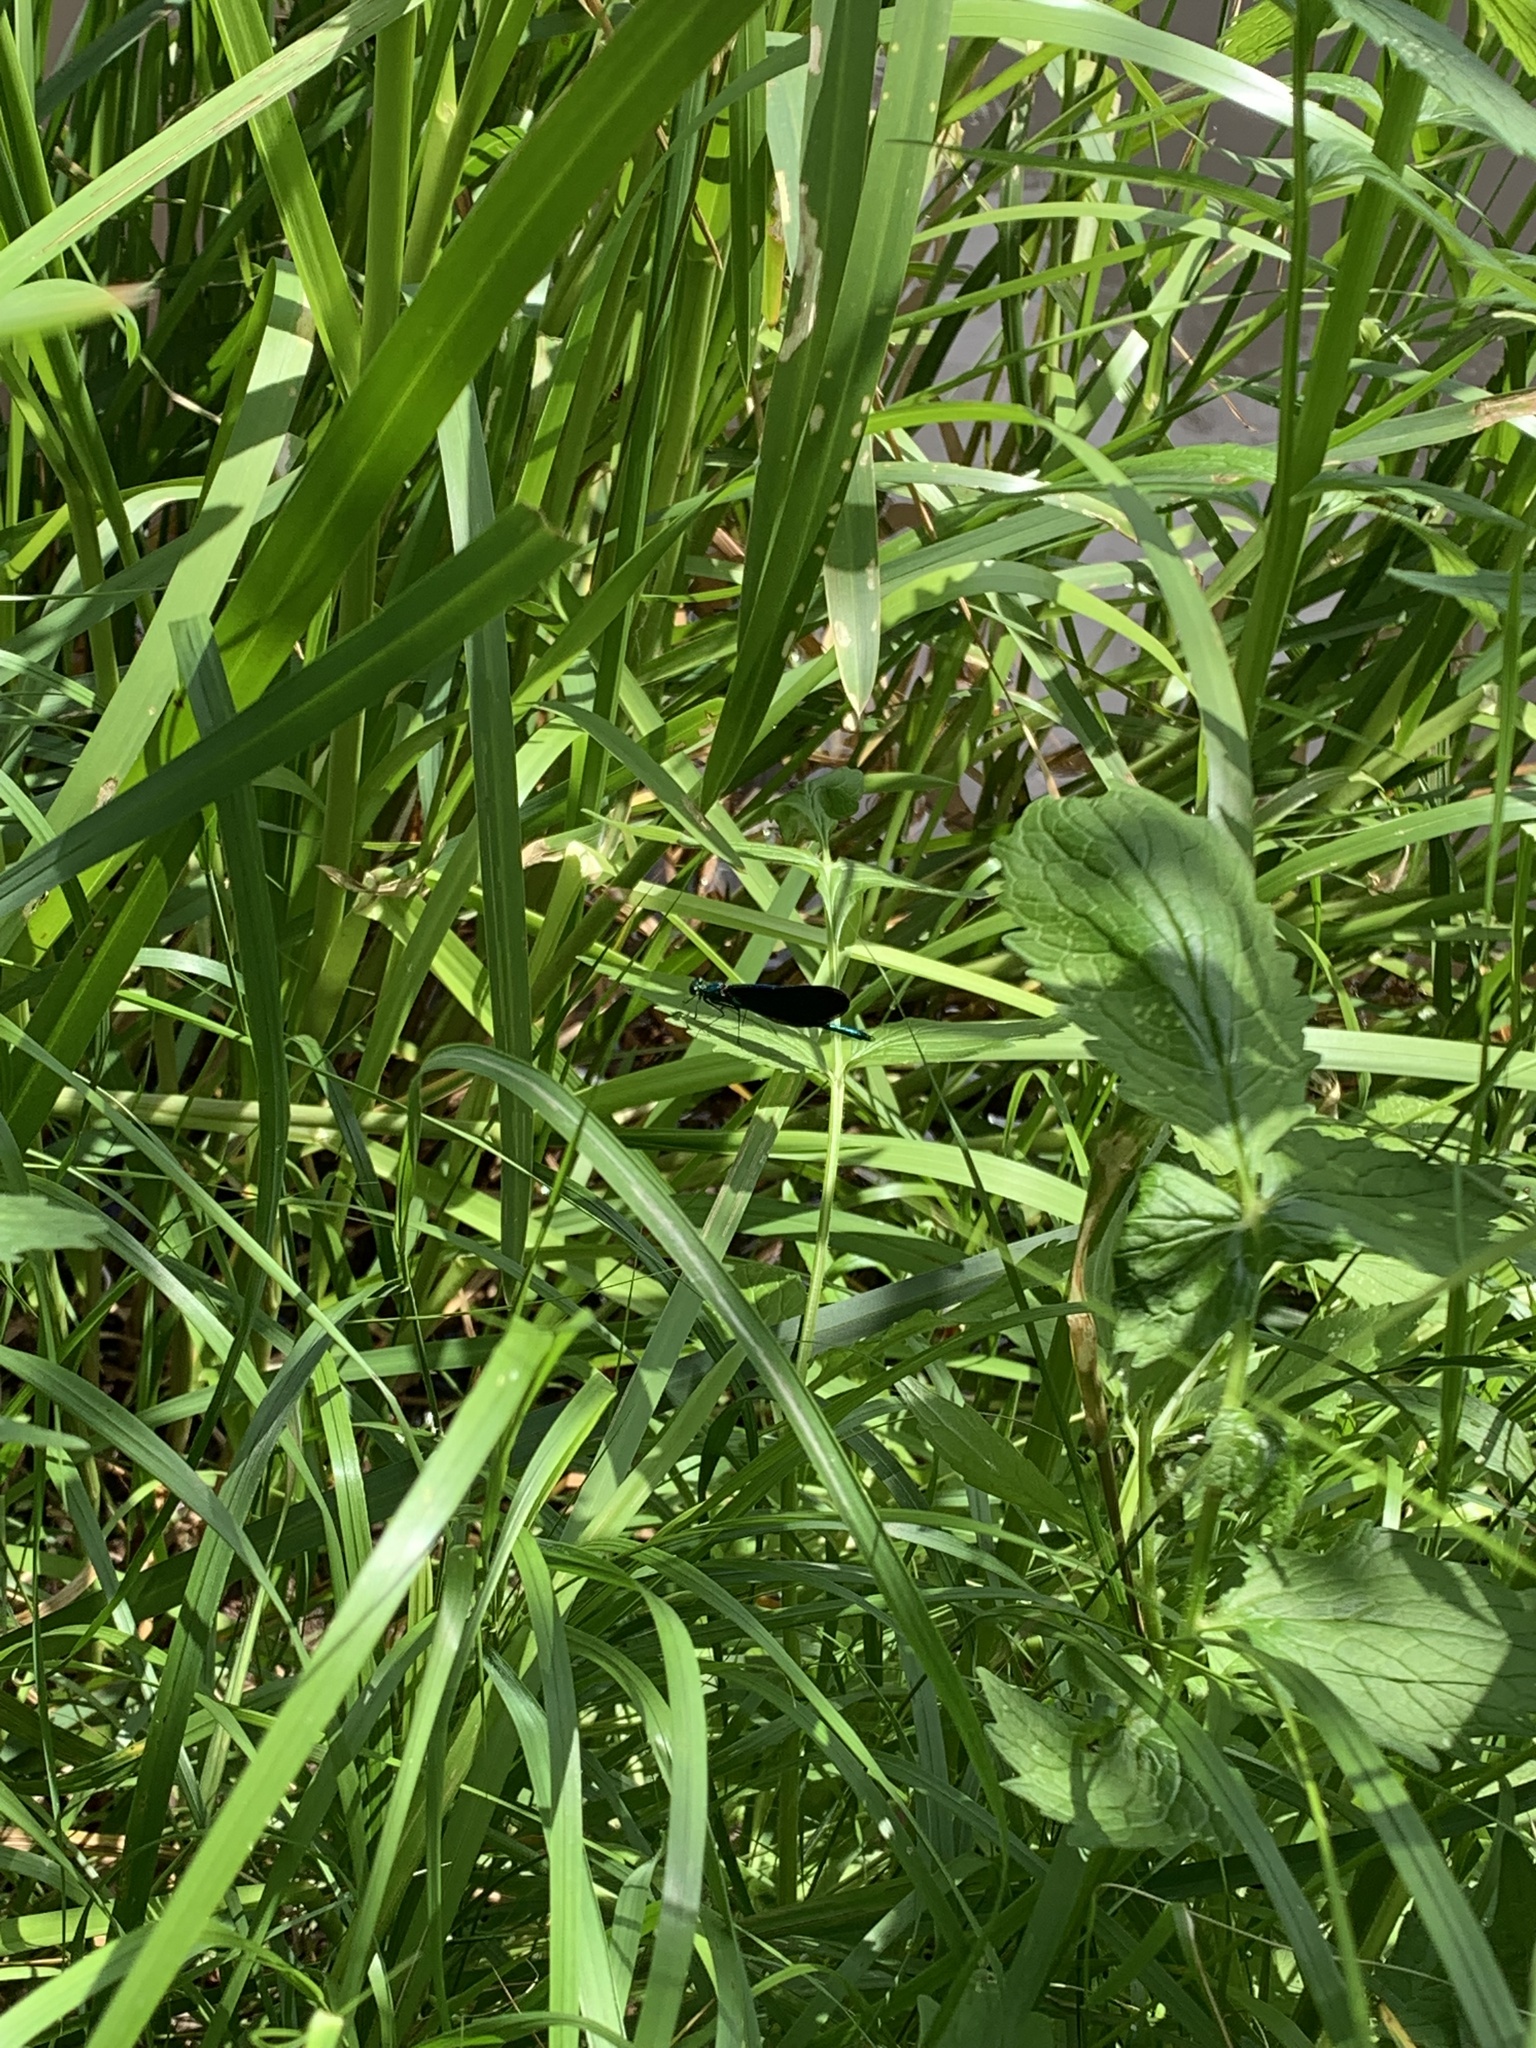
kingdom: Animalia
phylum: Arthropoda
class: Insecta
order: Odonata
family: Calopterygidae
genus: Calopteryx
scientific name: Calopteryx virgo
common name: Beautiful demoiselle
